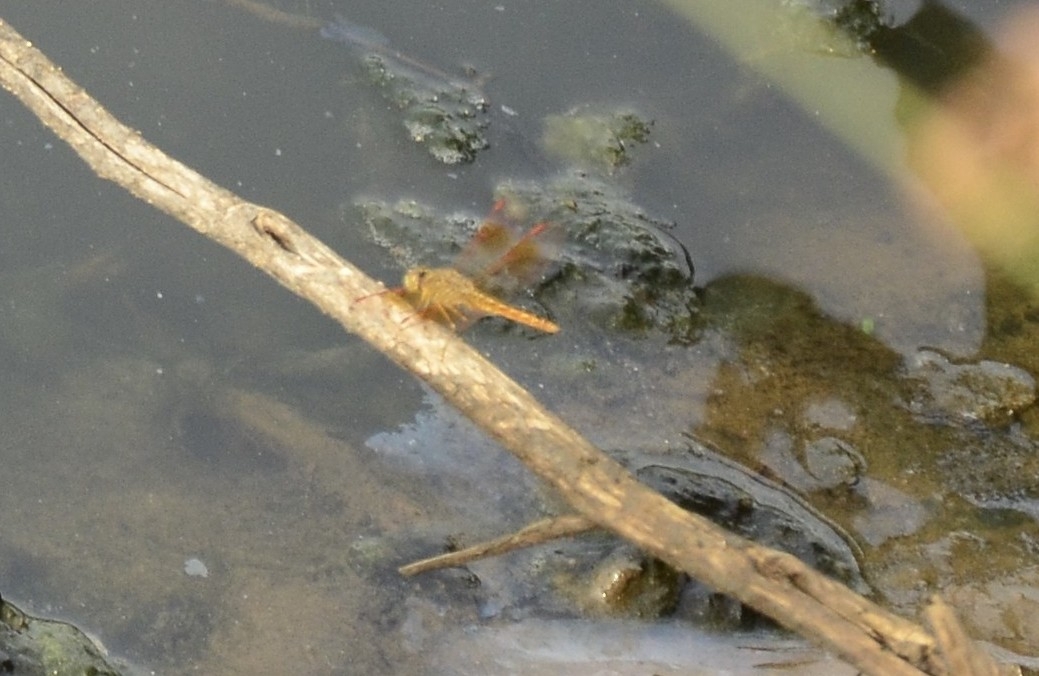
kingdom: Animalia
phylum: Arthropoda
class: Insecta
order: Odonata
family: Libellulidae
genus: Brachythemis
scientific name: Brachythemis contaminata
